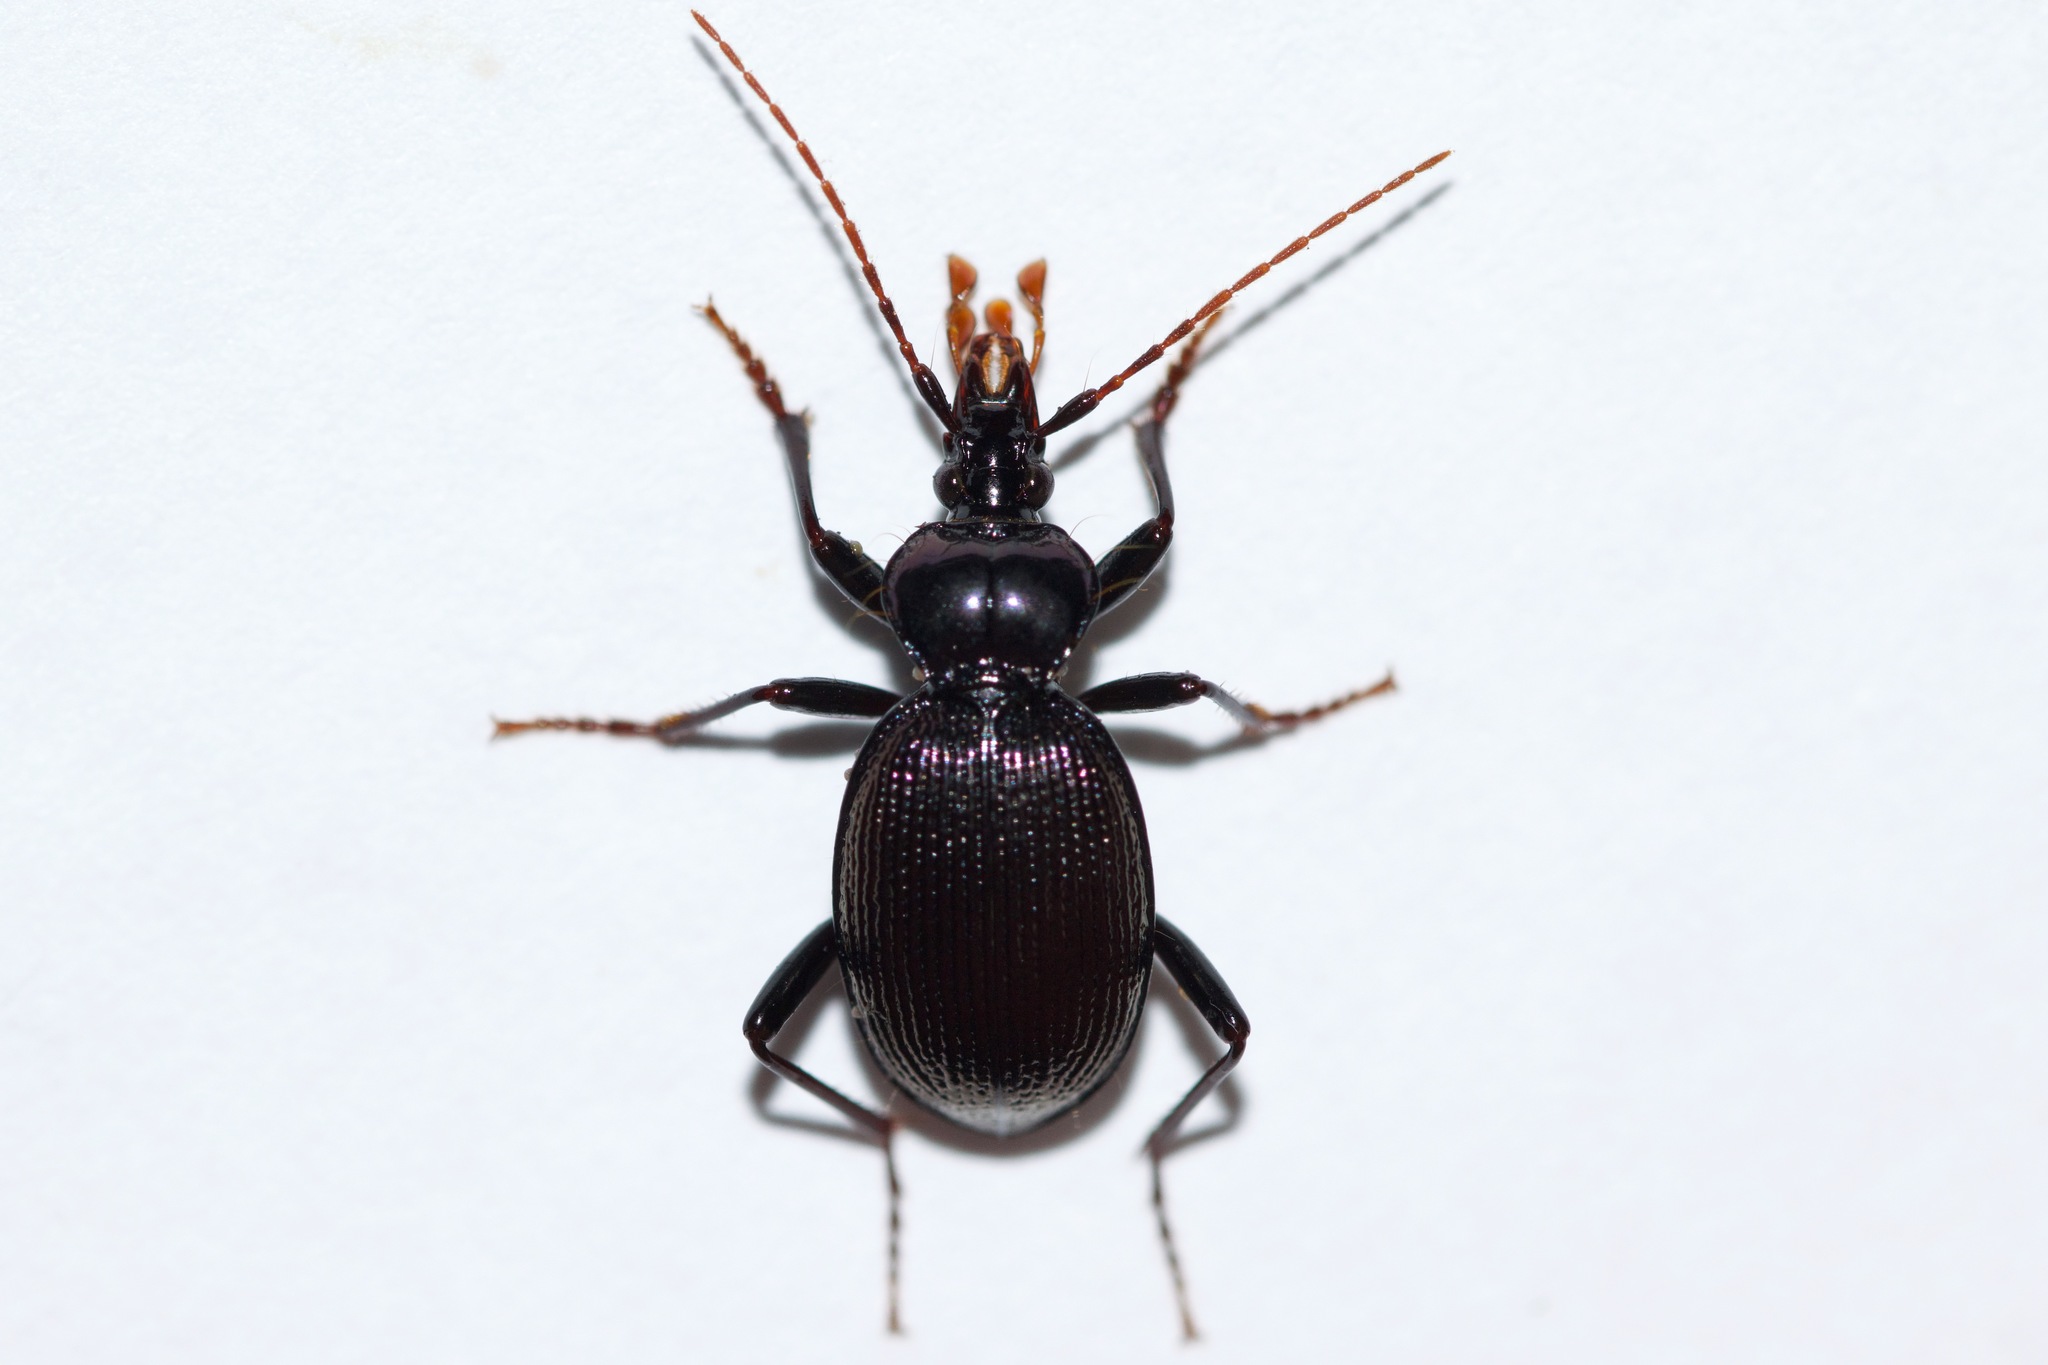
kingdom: Animalia
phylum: Arthropoda
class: Insecta
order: Coleoptera
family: Carabidae
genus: Scaphinotus
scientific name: Scaphinotus bilobus
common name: Bilobed snail-eating beetle
